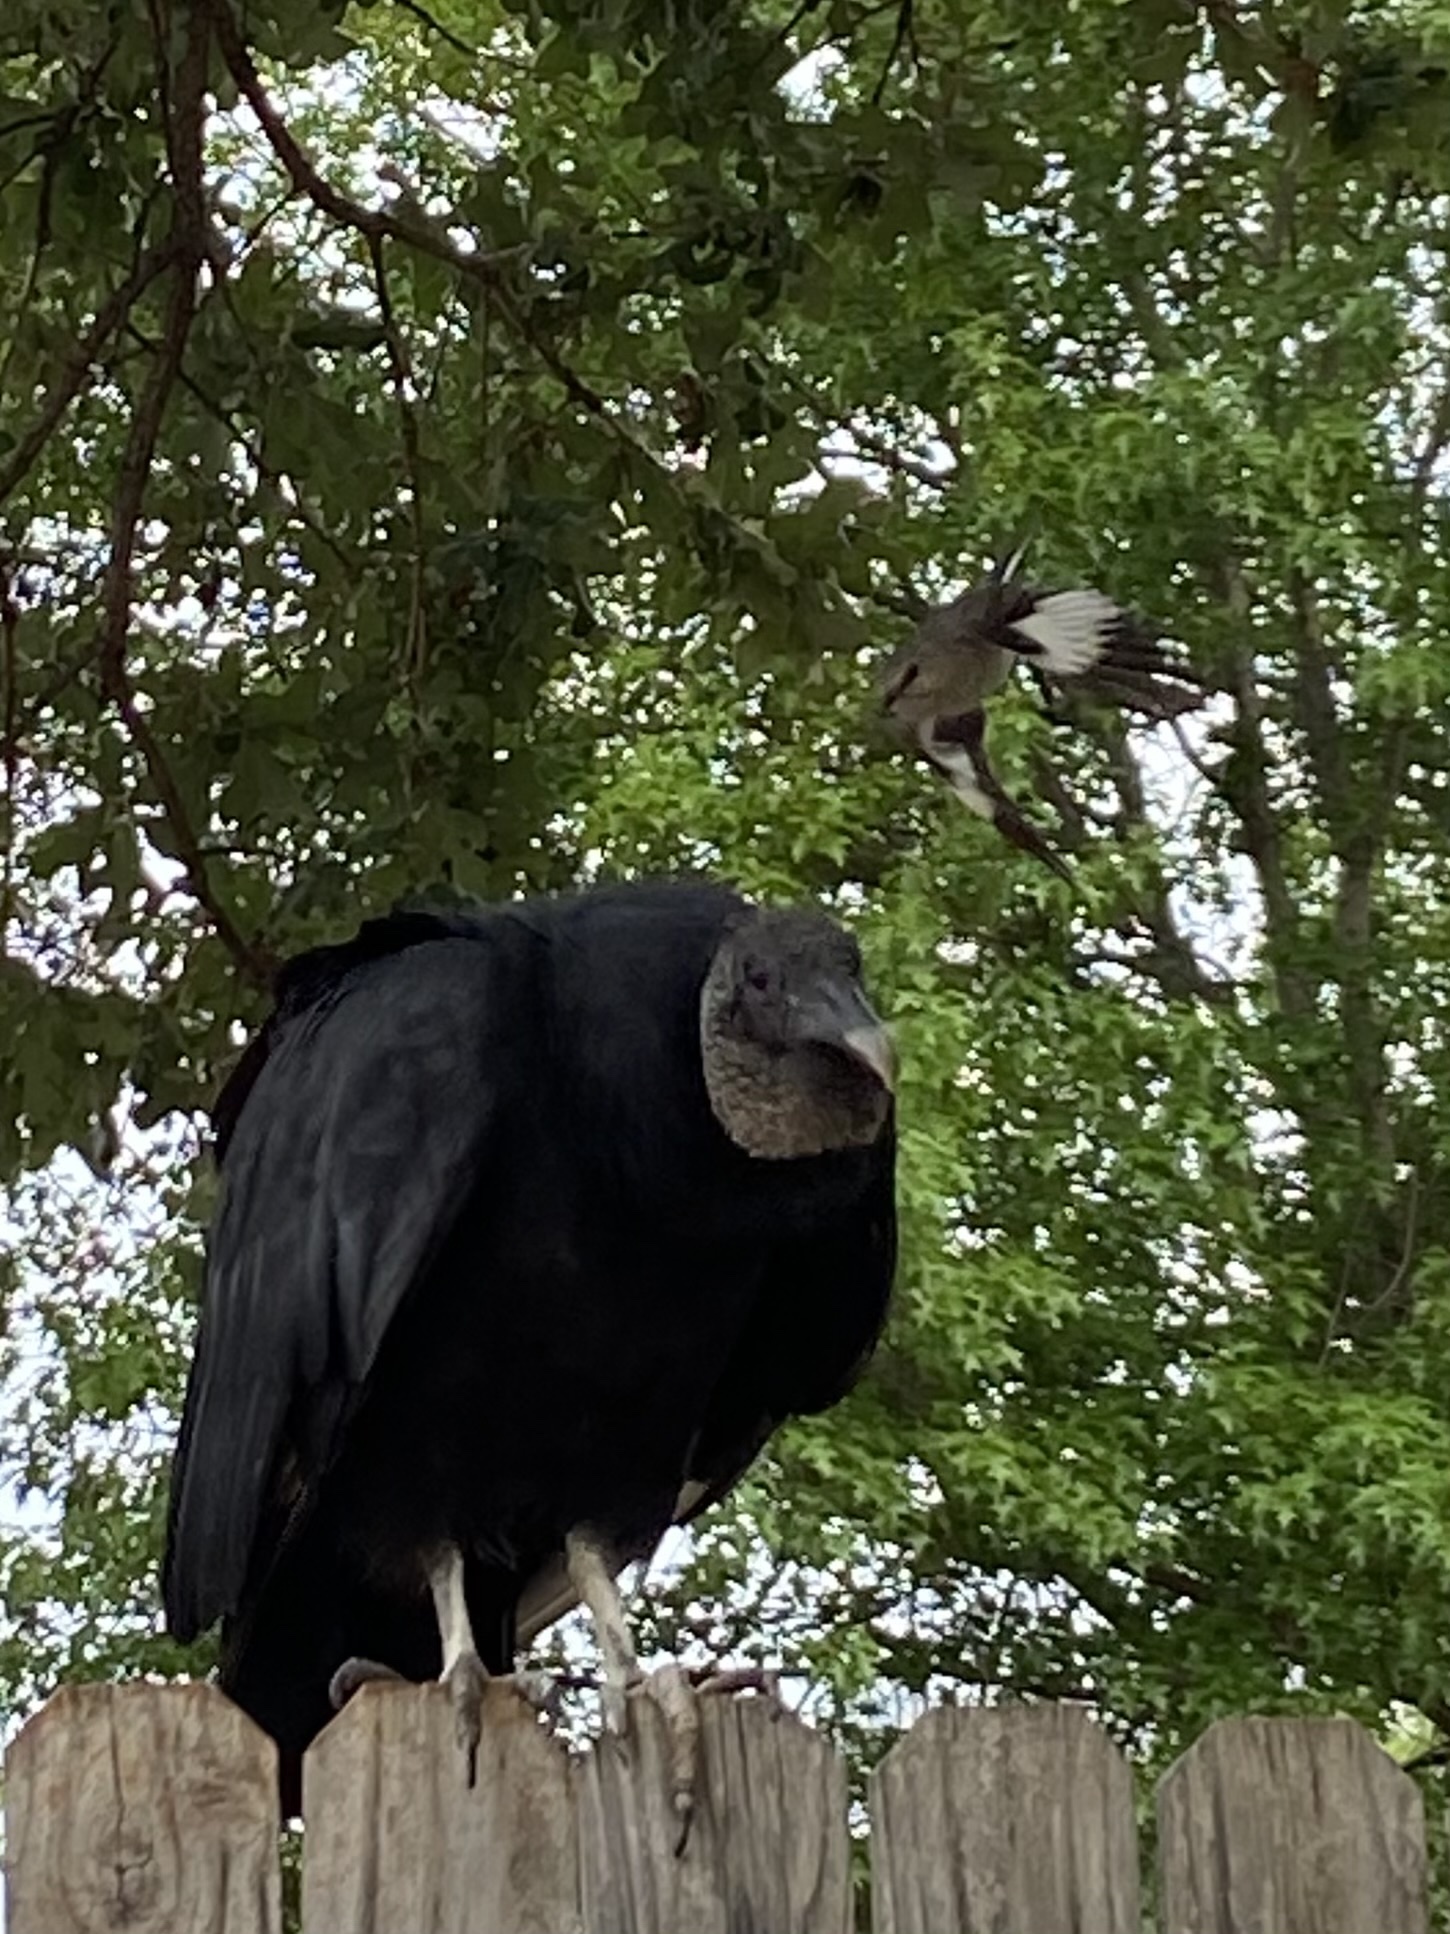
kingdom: Animalia
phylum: Chordata
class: Aves
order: Passeriformes
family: Mimidae
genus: Mimus
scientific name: Mimus polyglottos
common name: Northern mockingbird
